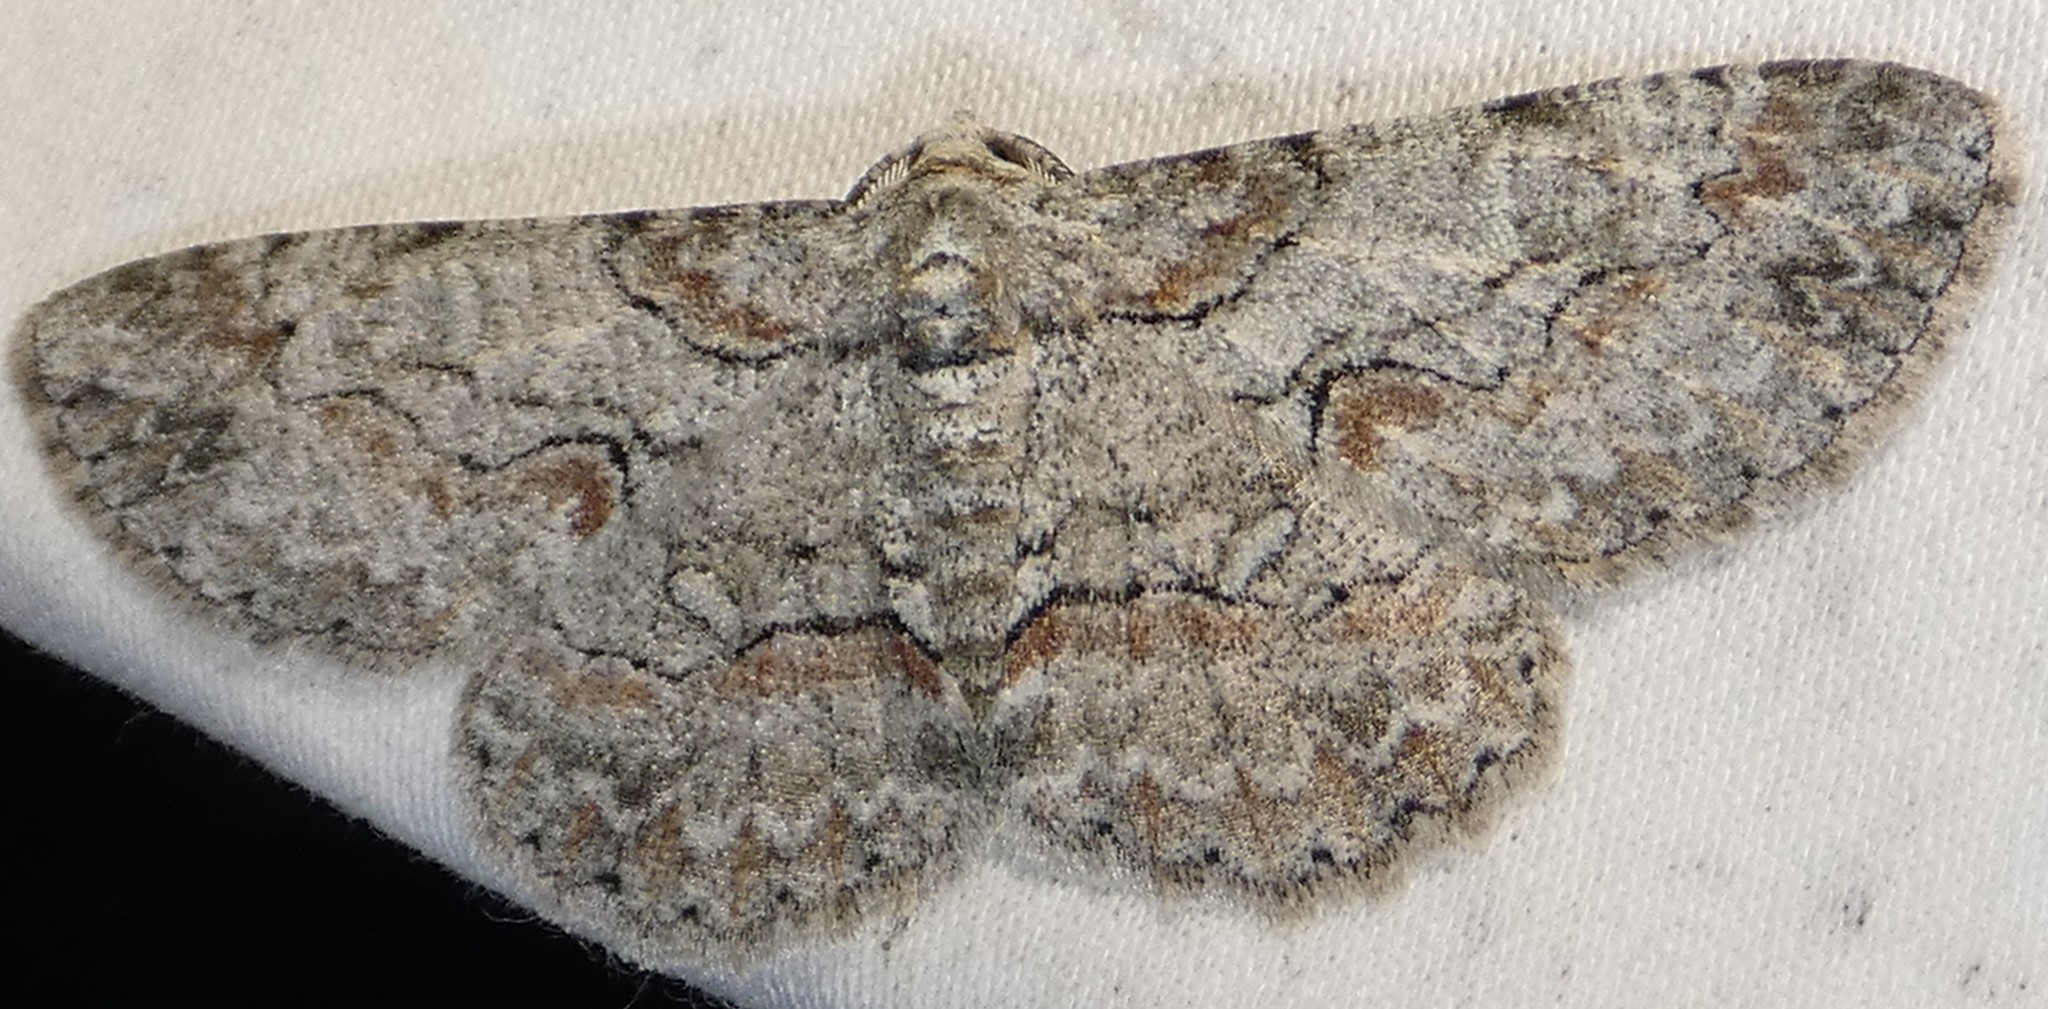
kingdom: Animalia
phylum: Arthropoda
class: Insecta
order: Lepidoptera
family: Geometridae
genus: Iridopsis
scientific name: Iridopsis defectaria
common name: Brown-shaded gray
